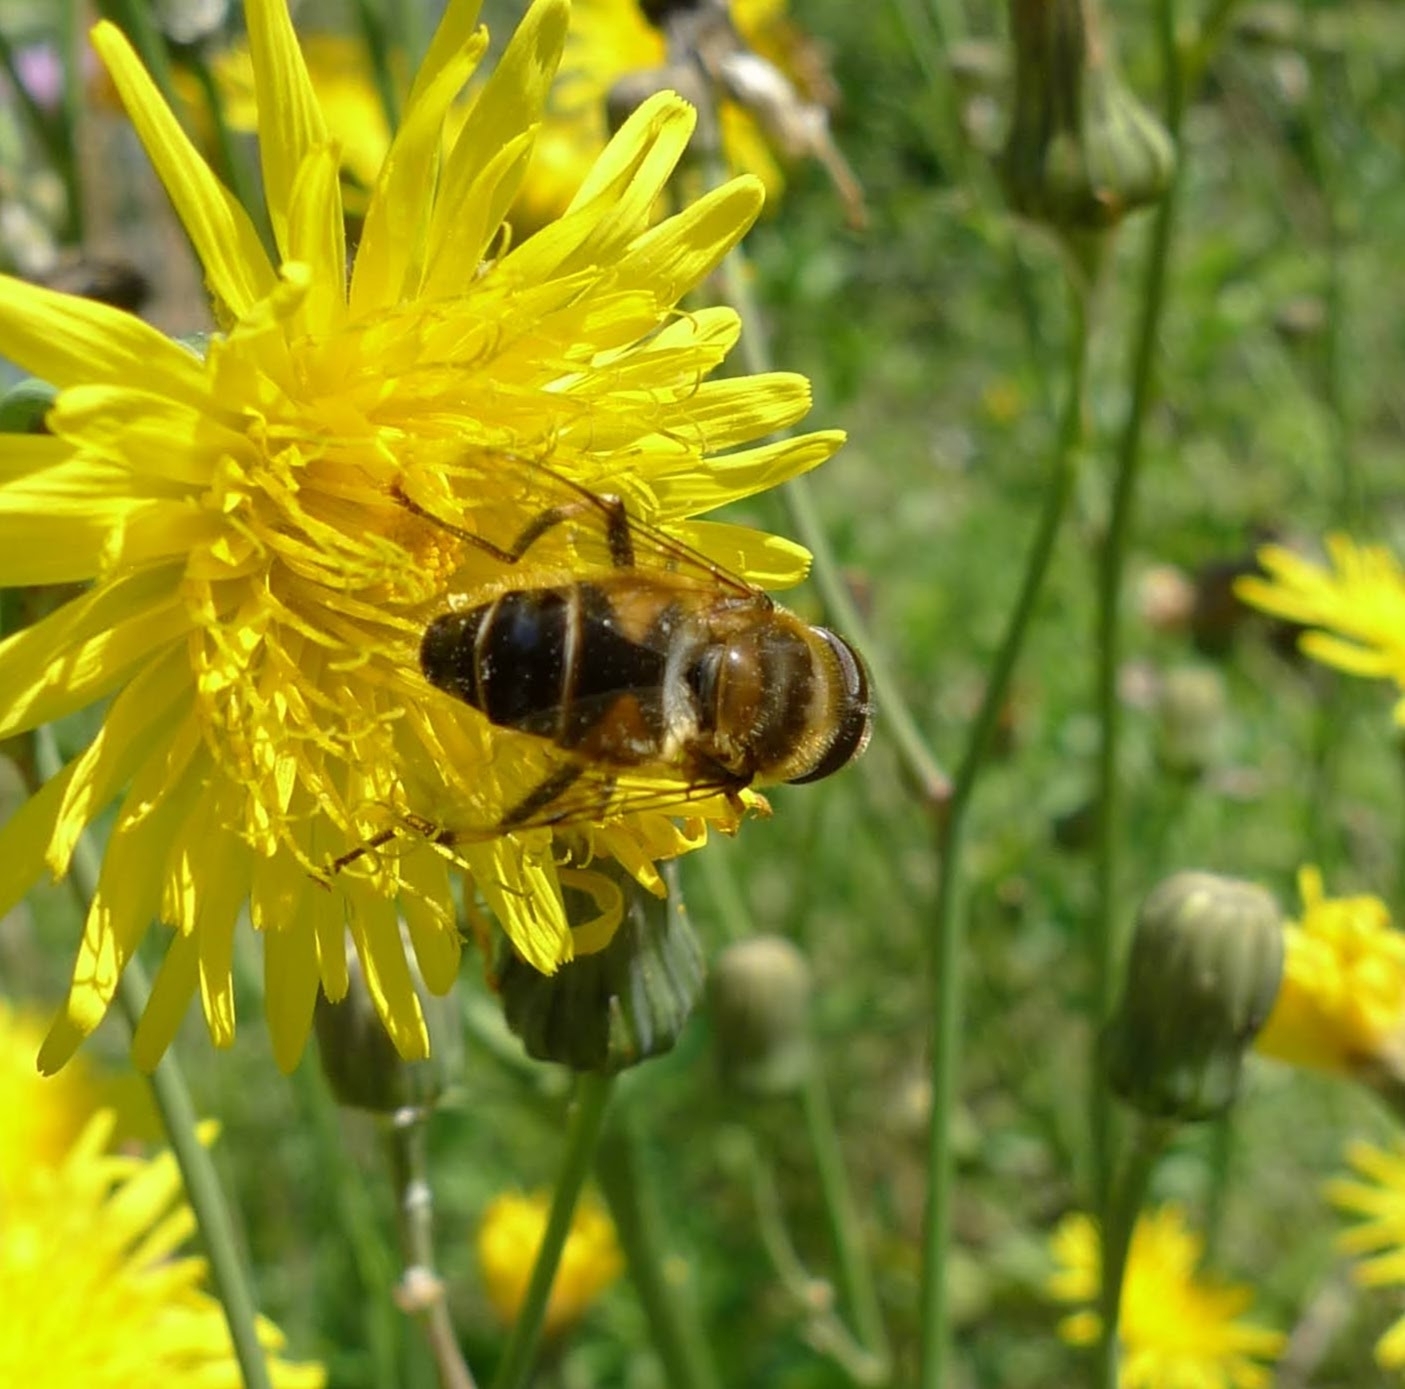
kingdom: Animalia
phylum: Arthropoda
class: Insecta
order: Diptera
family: Syrphidae
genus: Eristalis
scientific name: Eristalis pertinax
